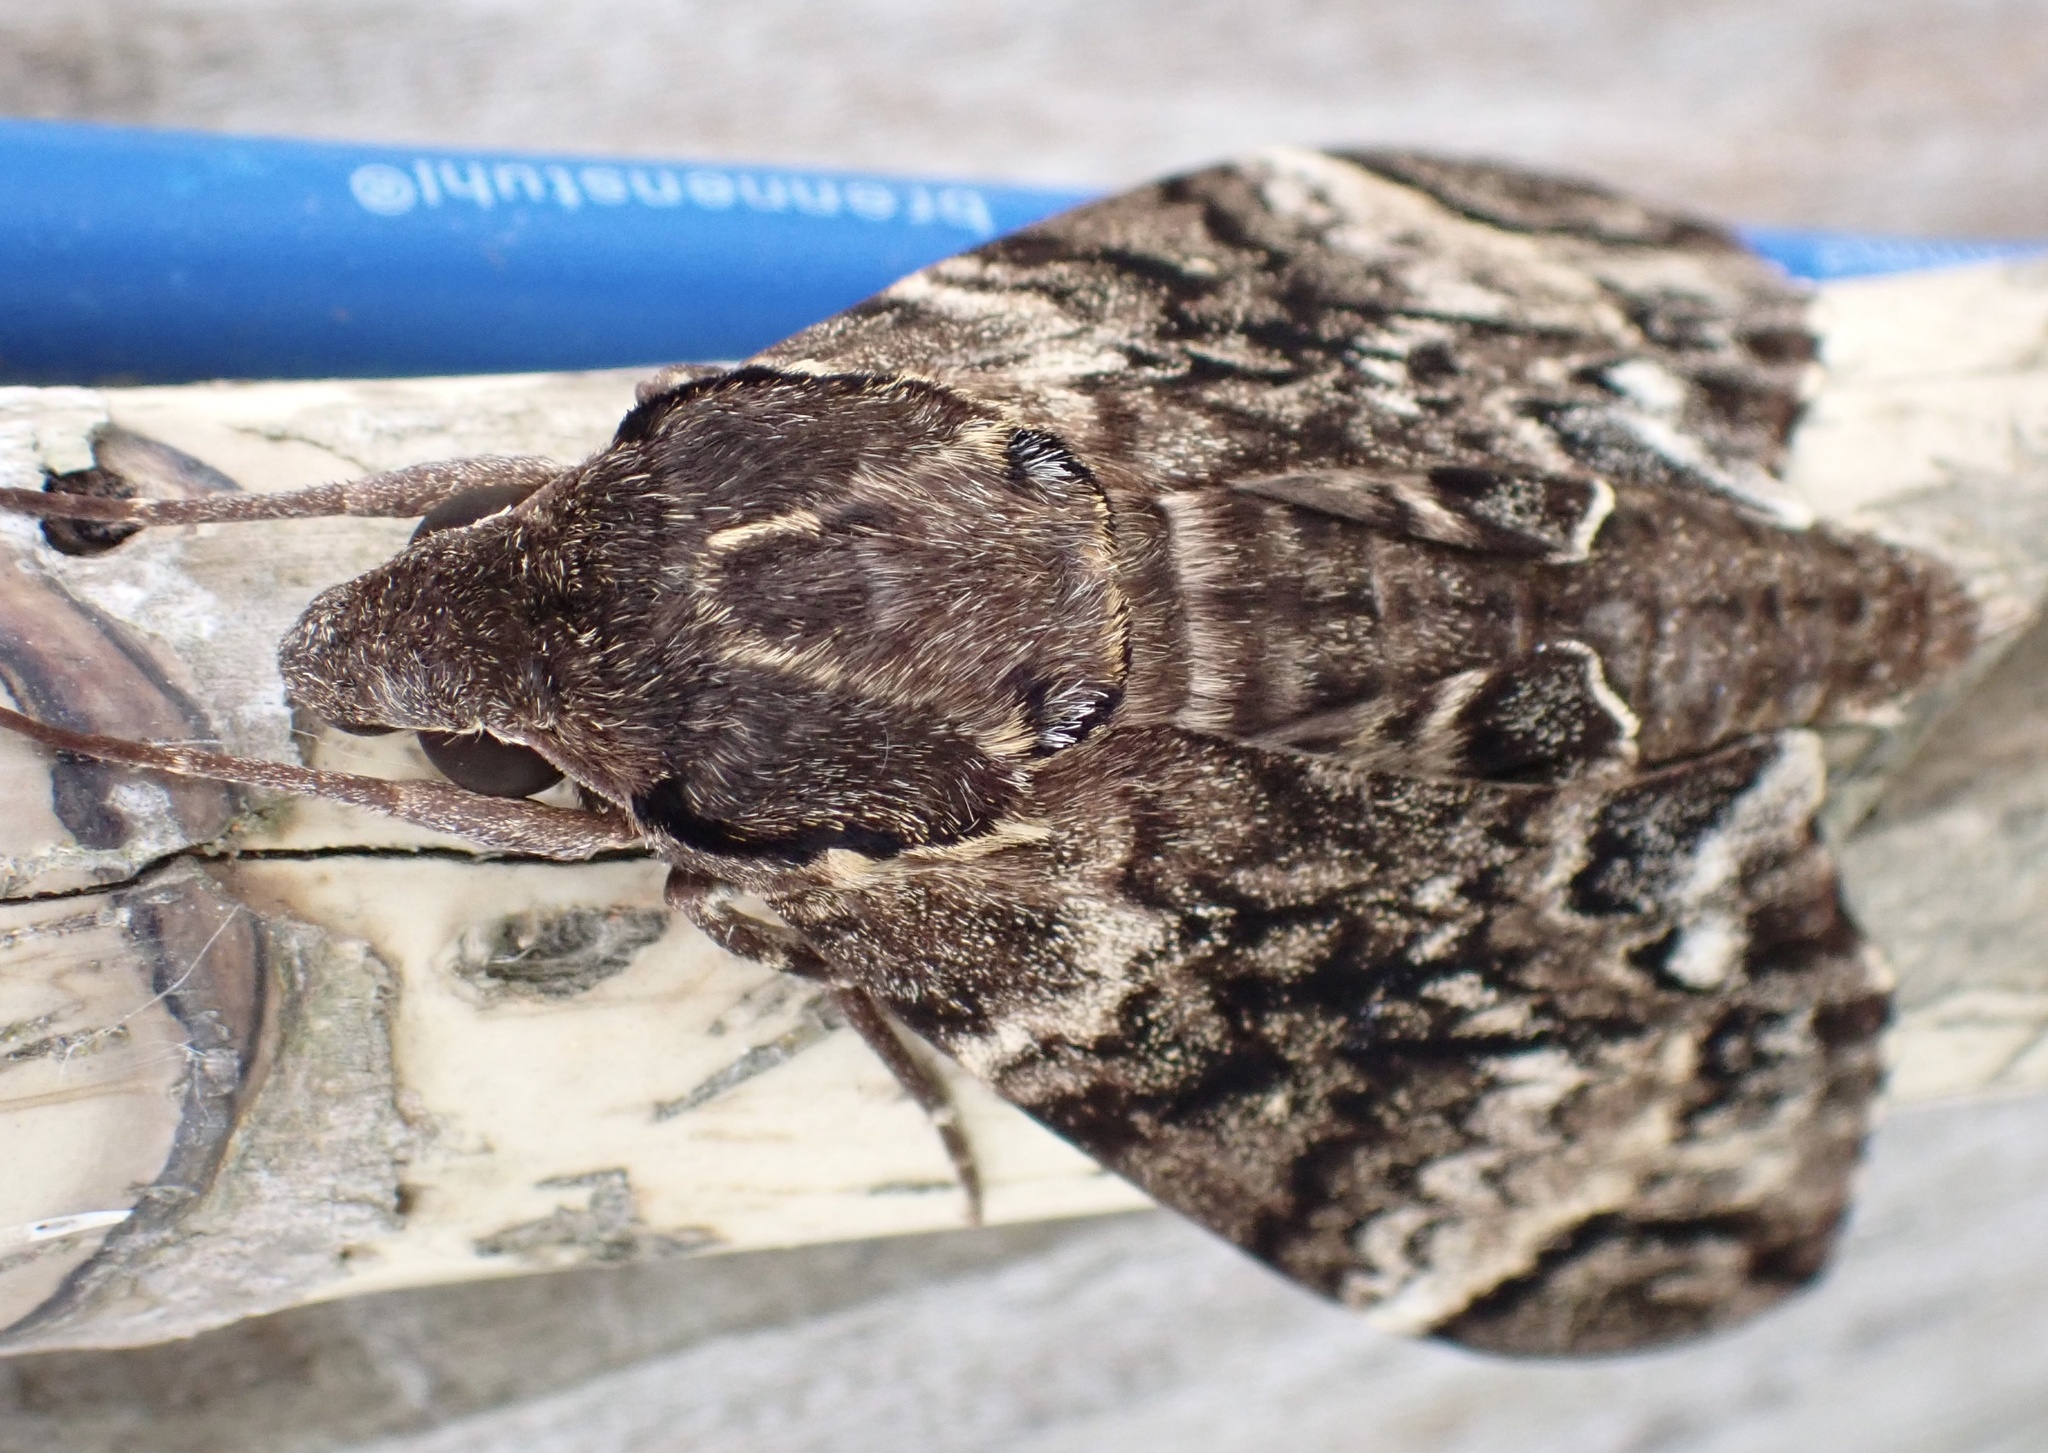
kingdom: Animalia
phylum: Arthropoda
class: Insecta
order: Lepidoptera
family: Sphingidae
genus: Psilogramma
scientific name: Psilogramma menephron
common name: Gray hawk moth
